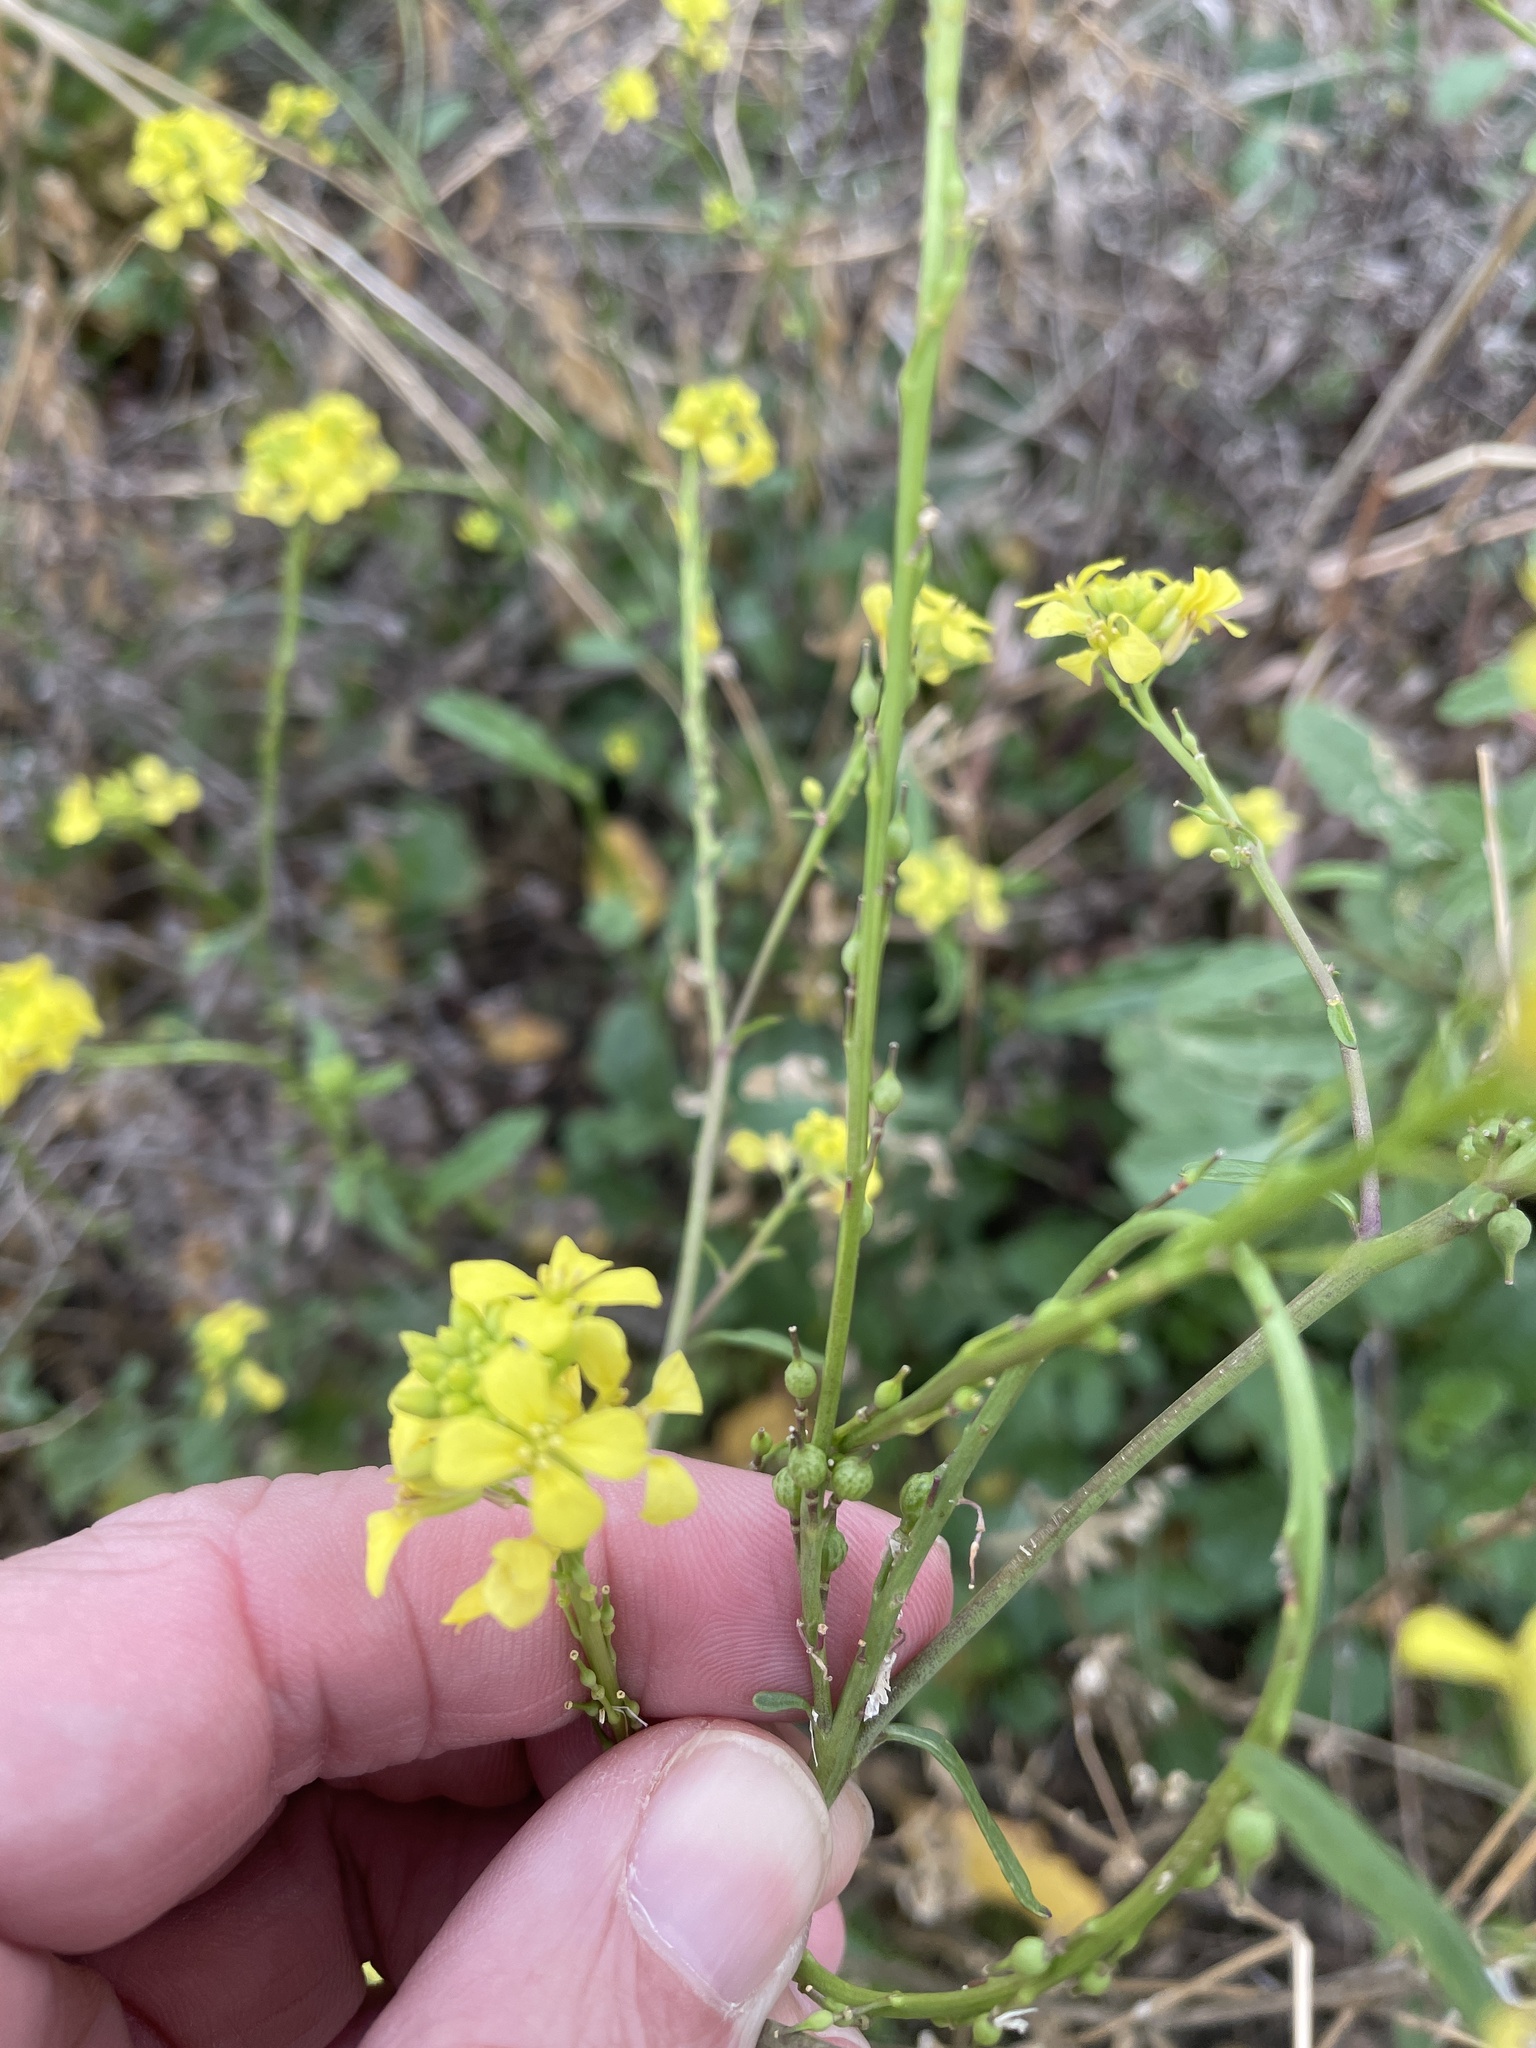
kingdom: Plantae
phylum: Tracheophyta
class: Magnoliopsida
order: Brassicales
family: Brassicaceae
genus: Rapistrum
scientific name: Rapistrum rugosum
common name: Annual bastardcabbage
